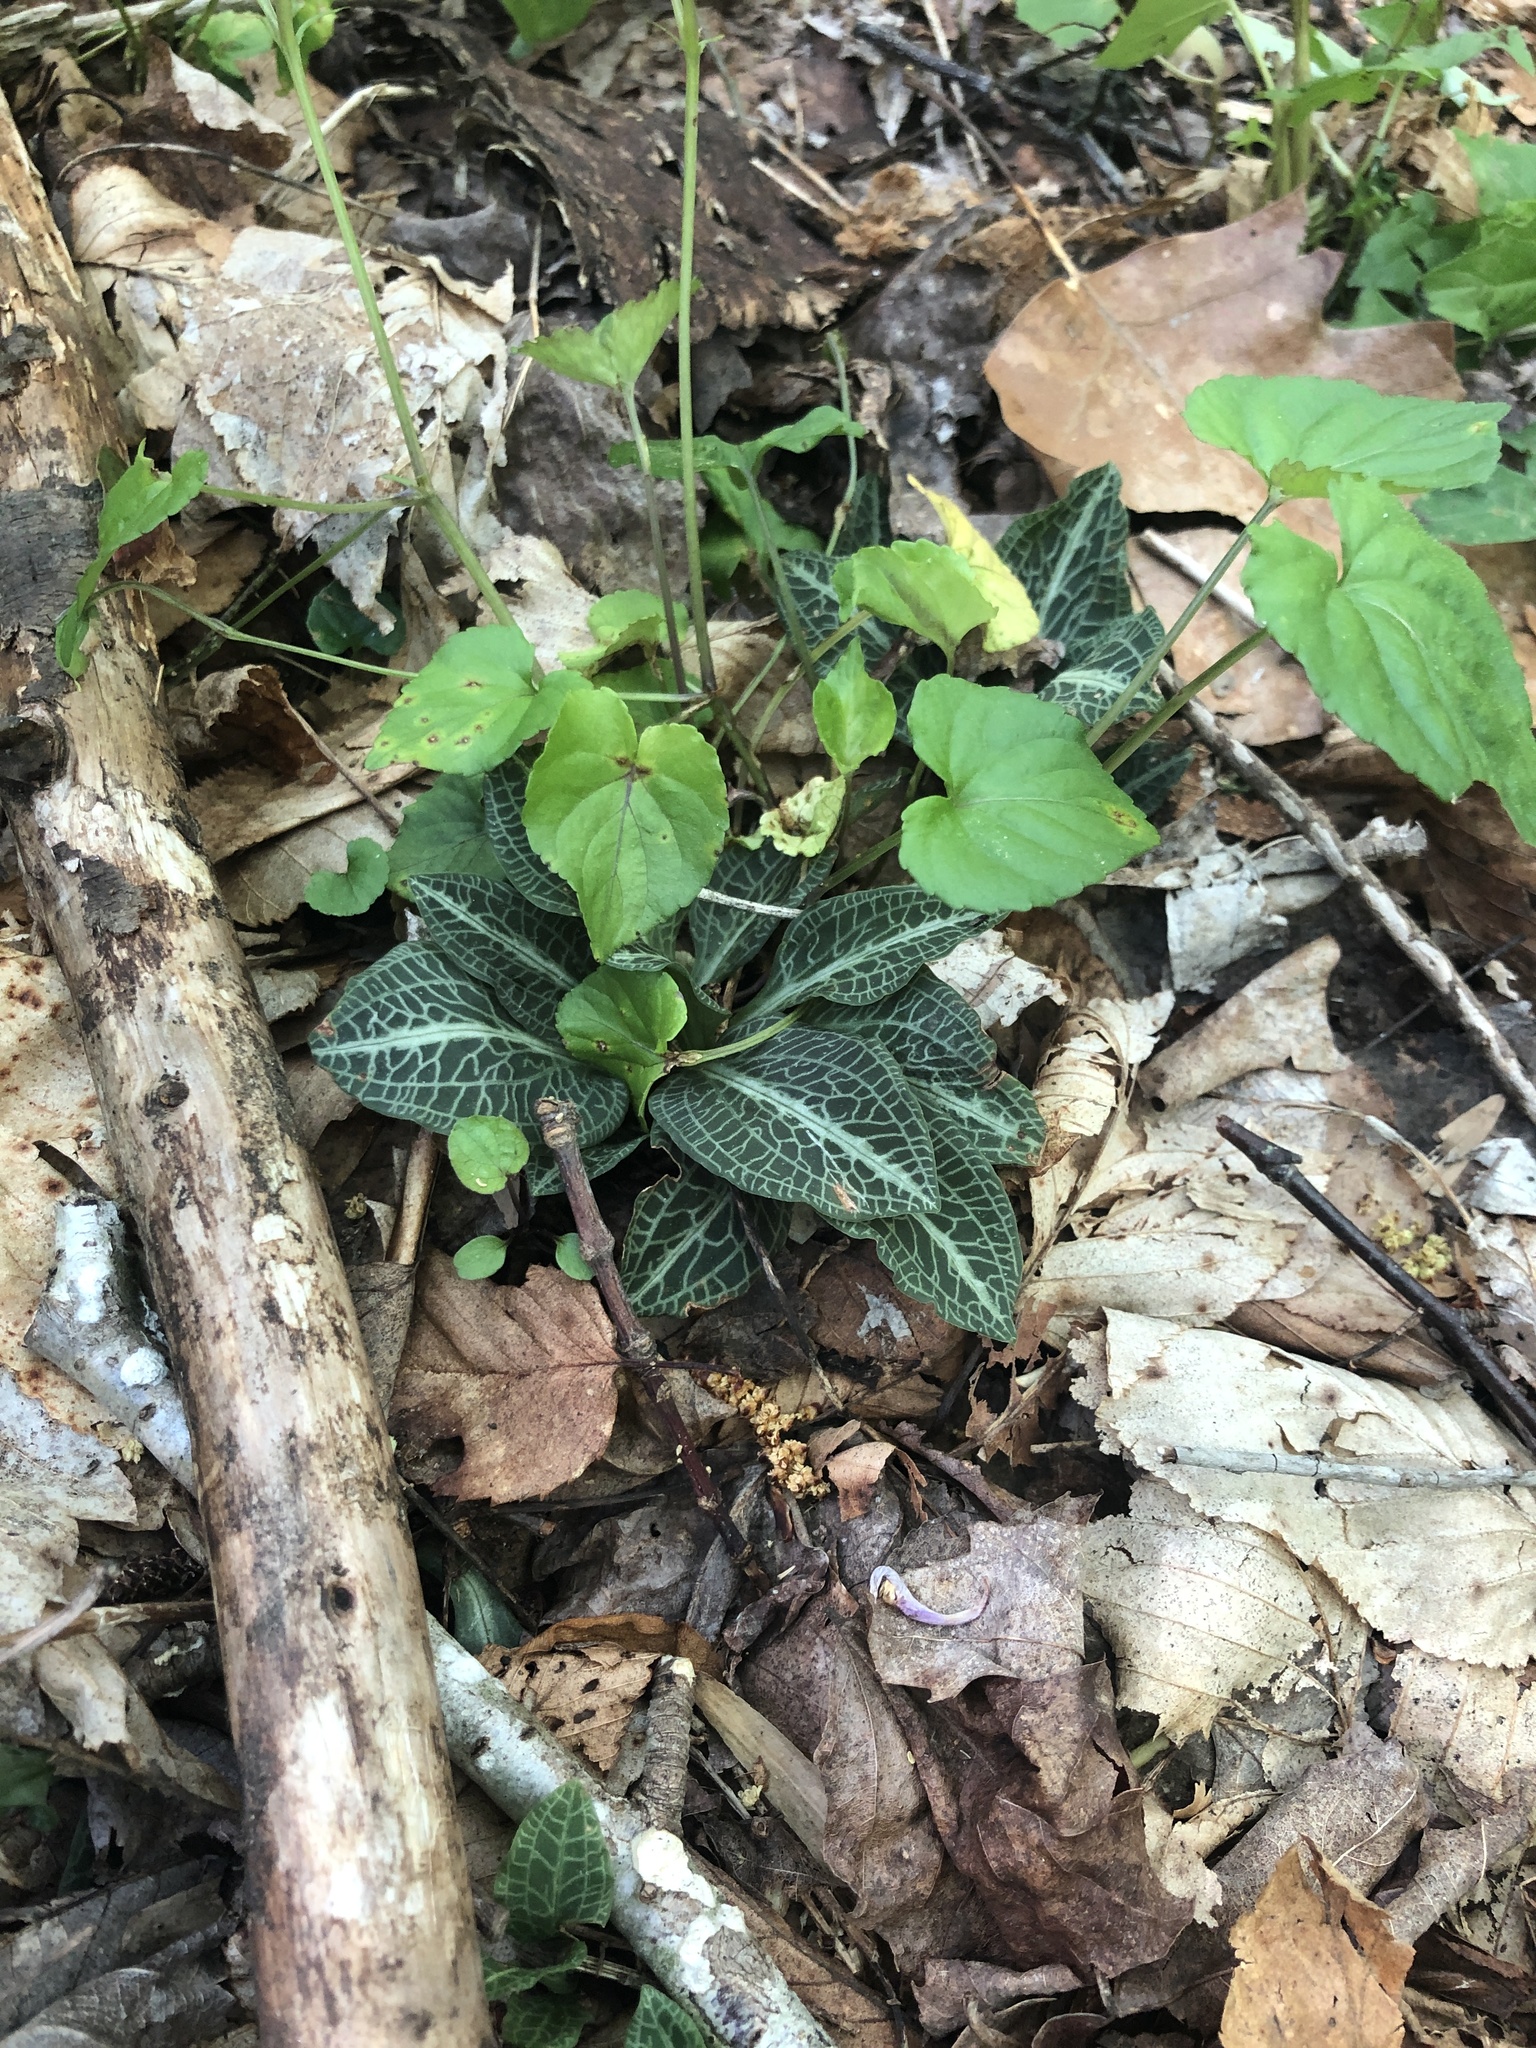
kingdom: Plantae
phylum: Tracheophyta
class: Liliopsida
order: Asparagales
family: Orchidaceae
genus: Goodyera
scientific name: Goodyera pubescens
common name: Downy rattlesnake-plantain
